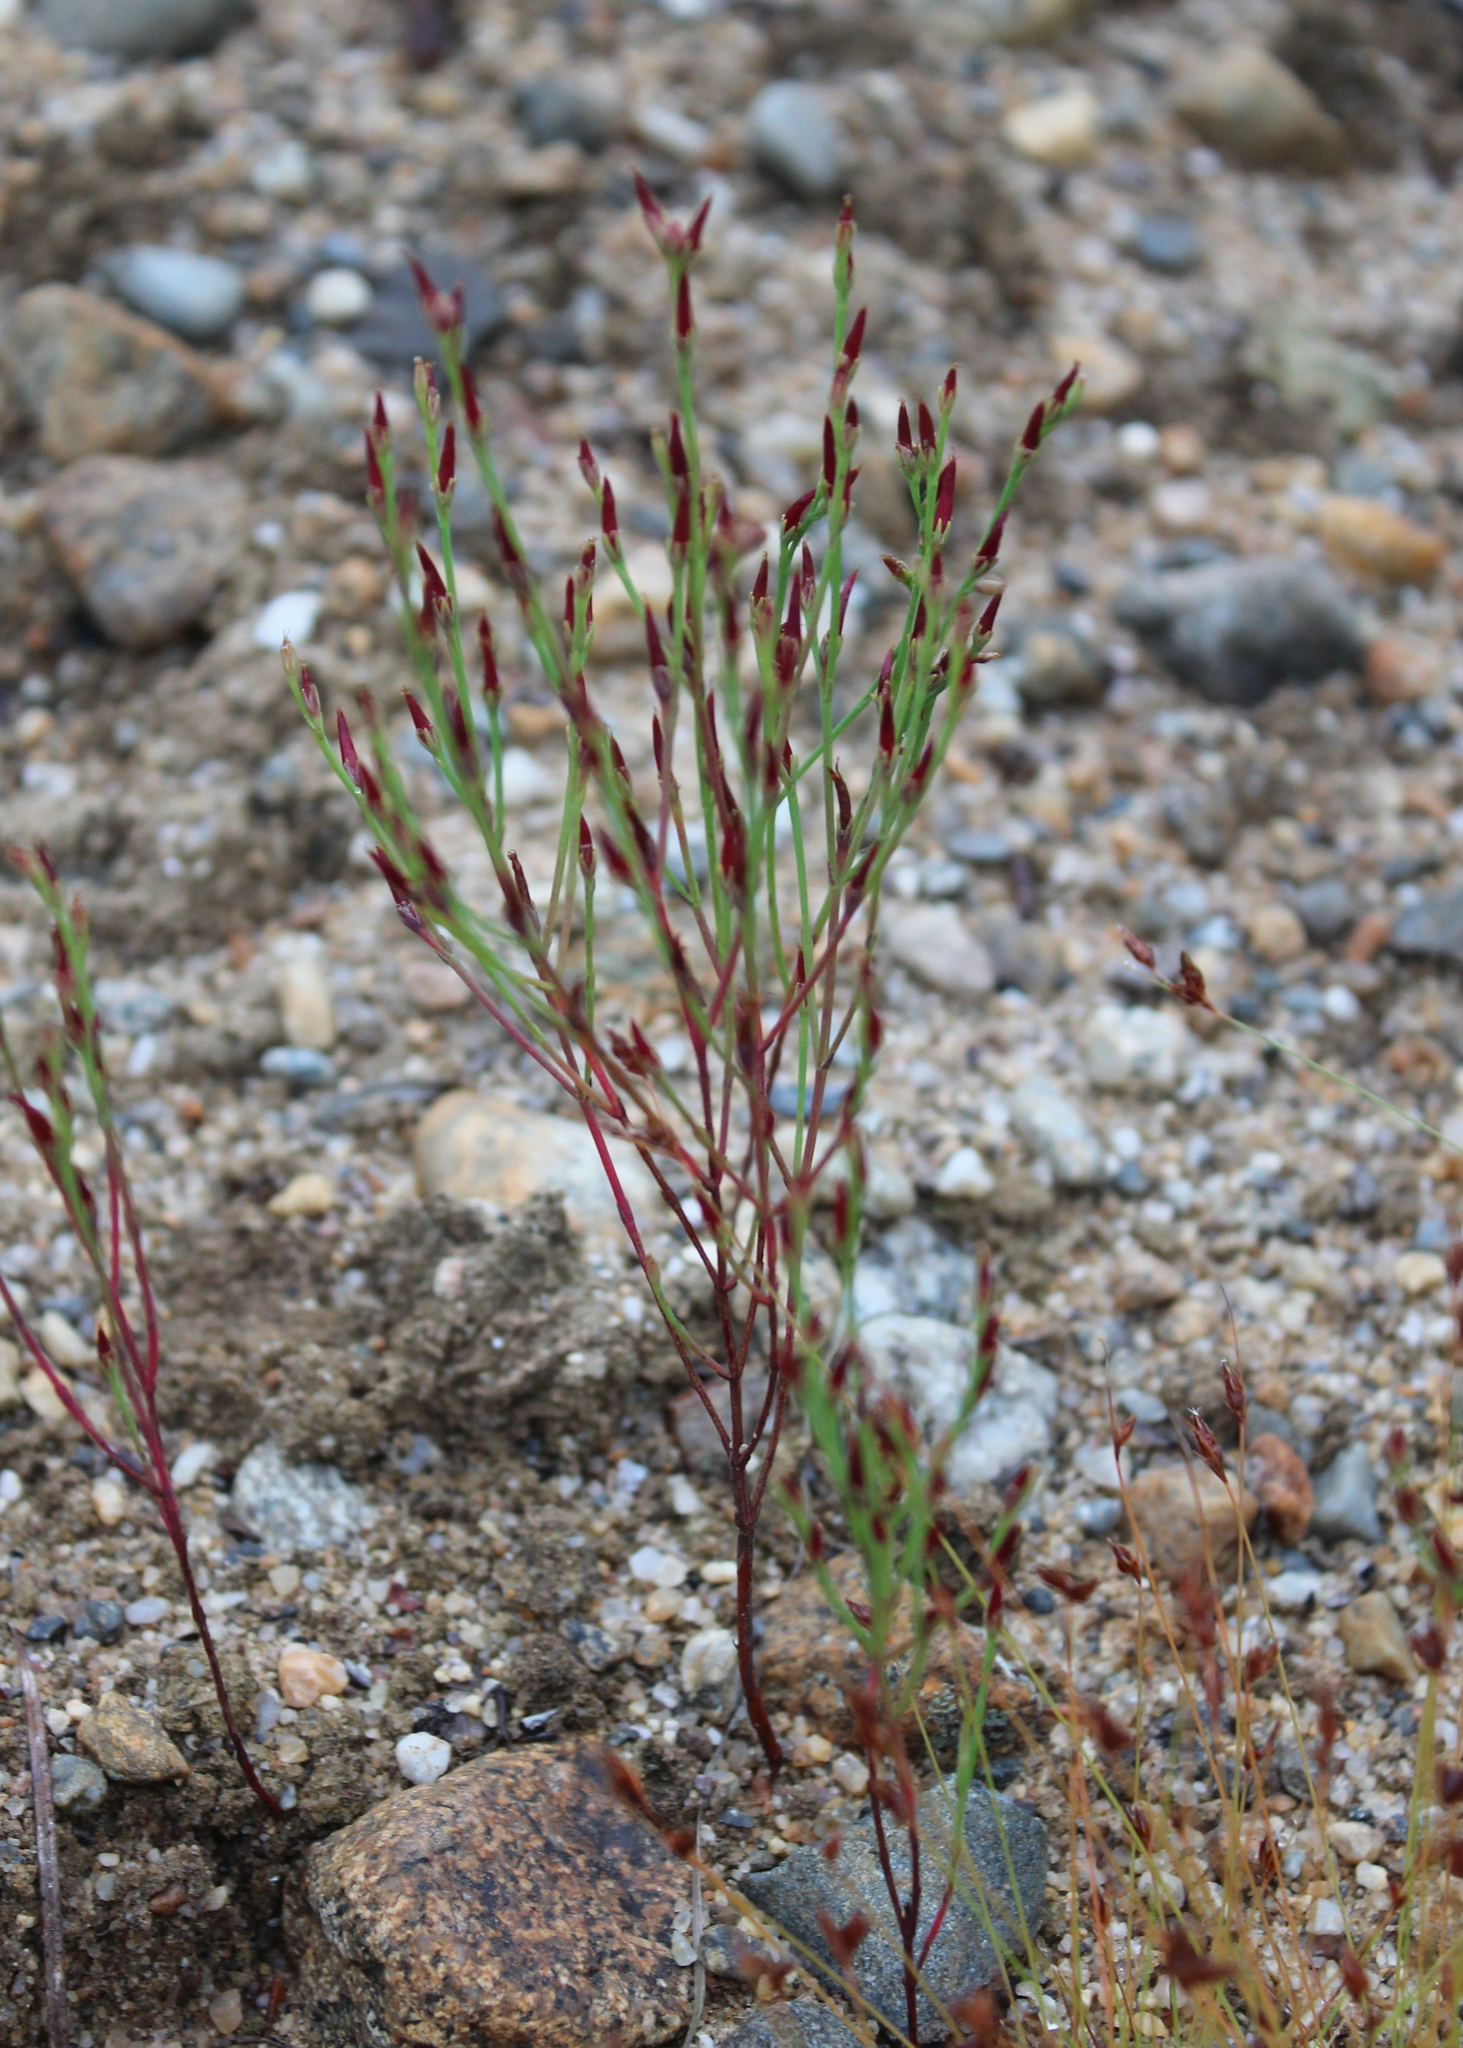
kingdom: Plantae
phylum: Tracheophyta
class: Magnoliopsida
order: Malpighiales
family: Hypericaceae
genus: Hypericum
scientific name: Hypericum gentianoides
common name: Gentian-leaved st. john's-wort
